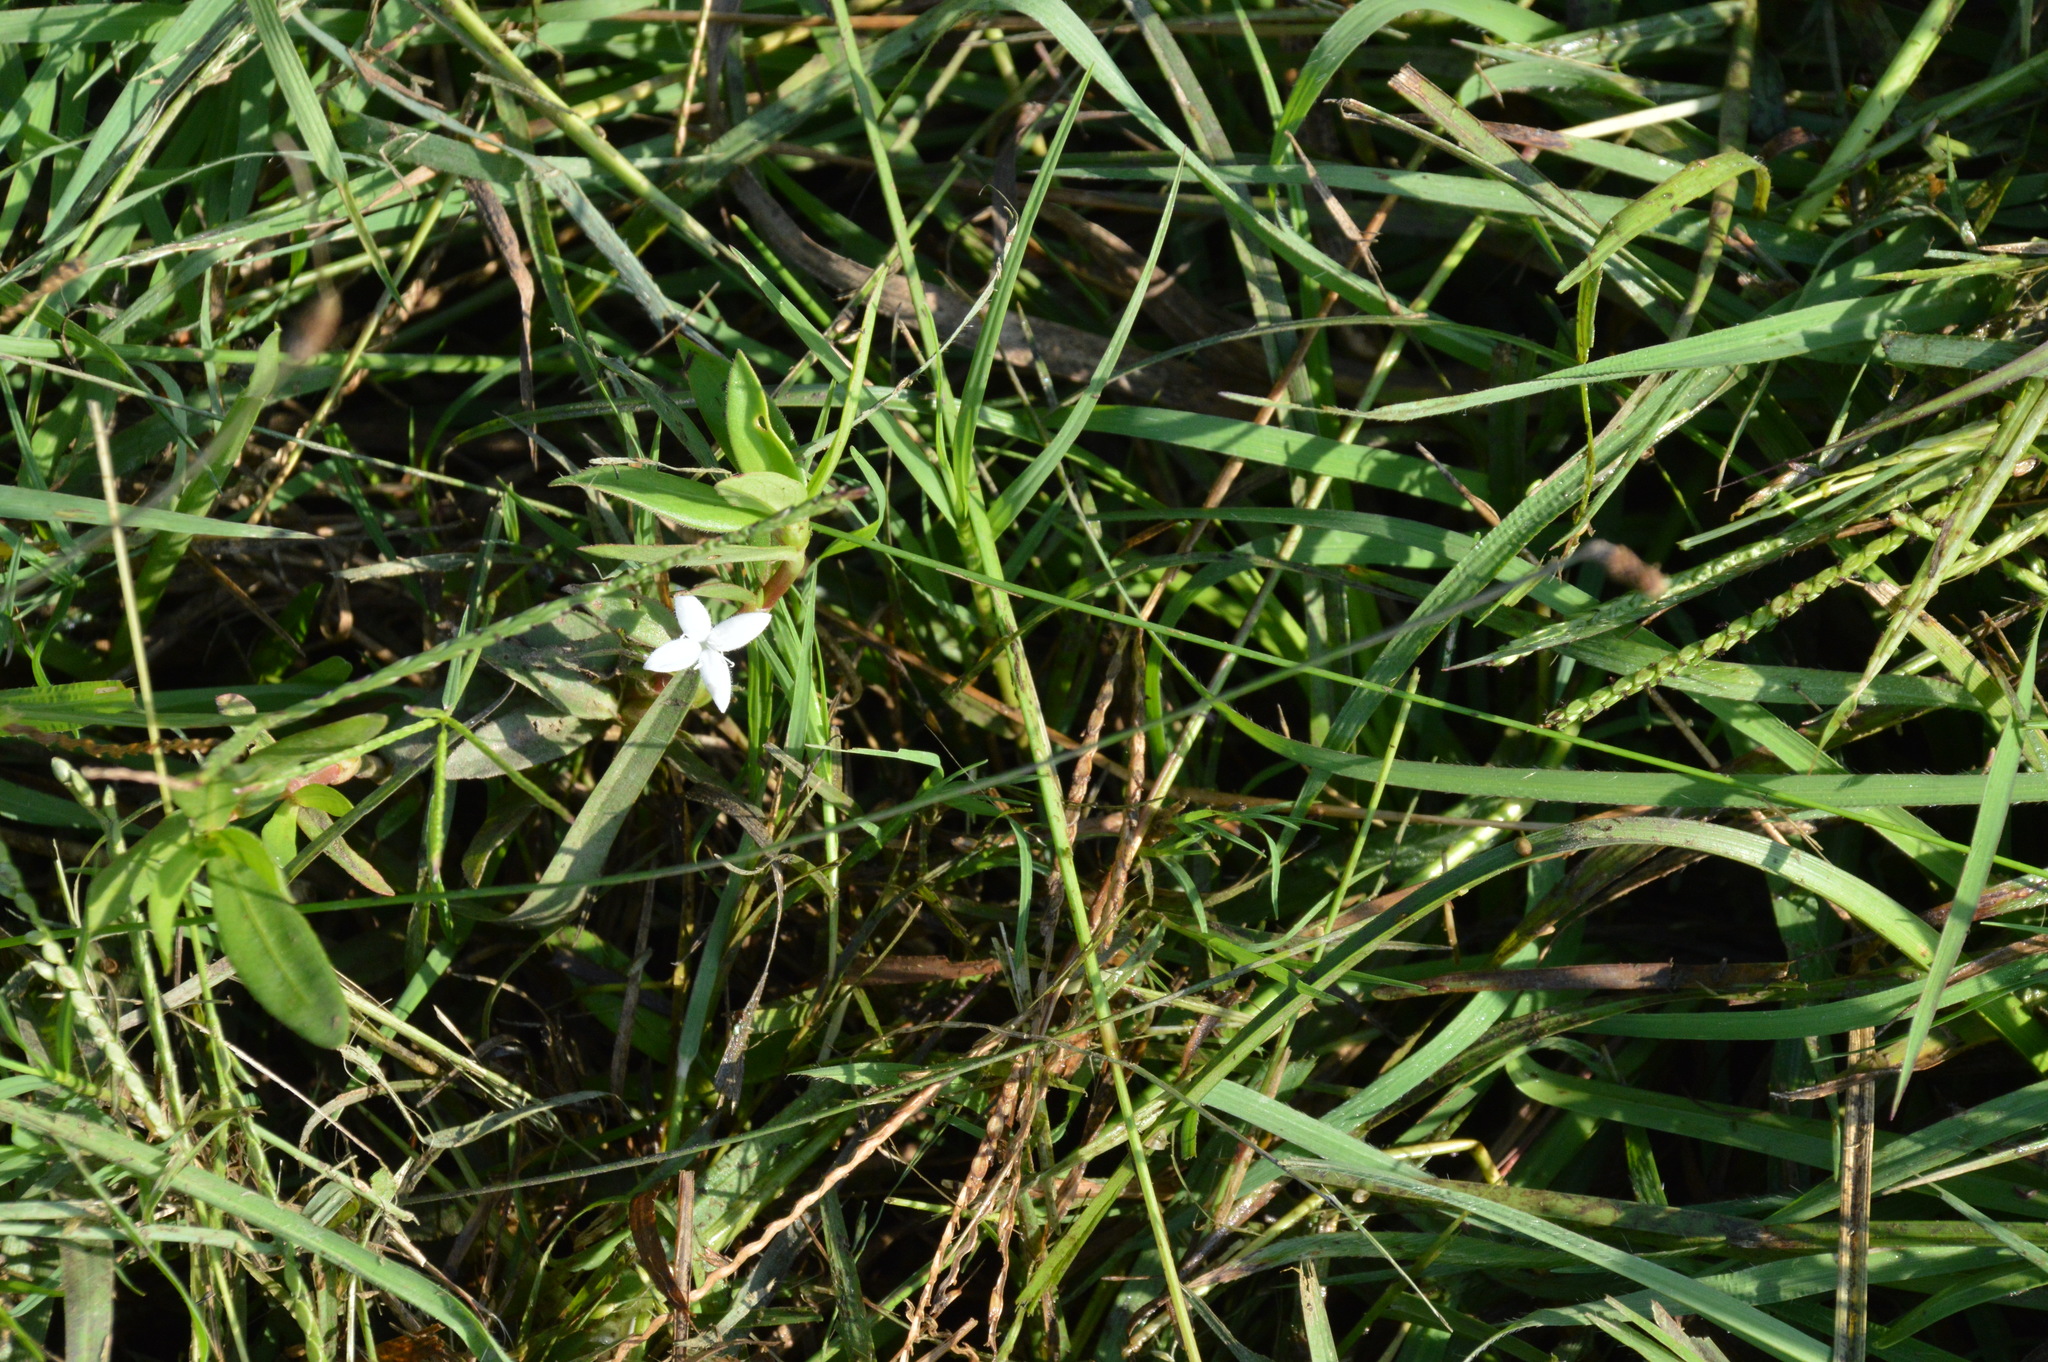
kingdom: Plantae
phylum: Tracheophyta
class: Magnoliopsida
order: Gentianales
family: Rubiaceae
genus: Diodia
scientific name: Diodia virginiana
